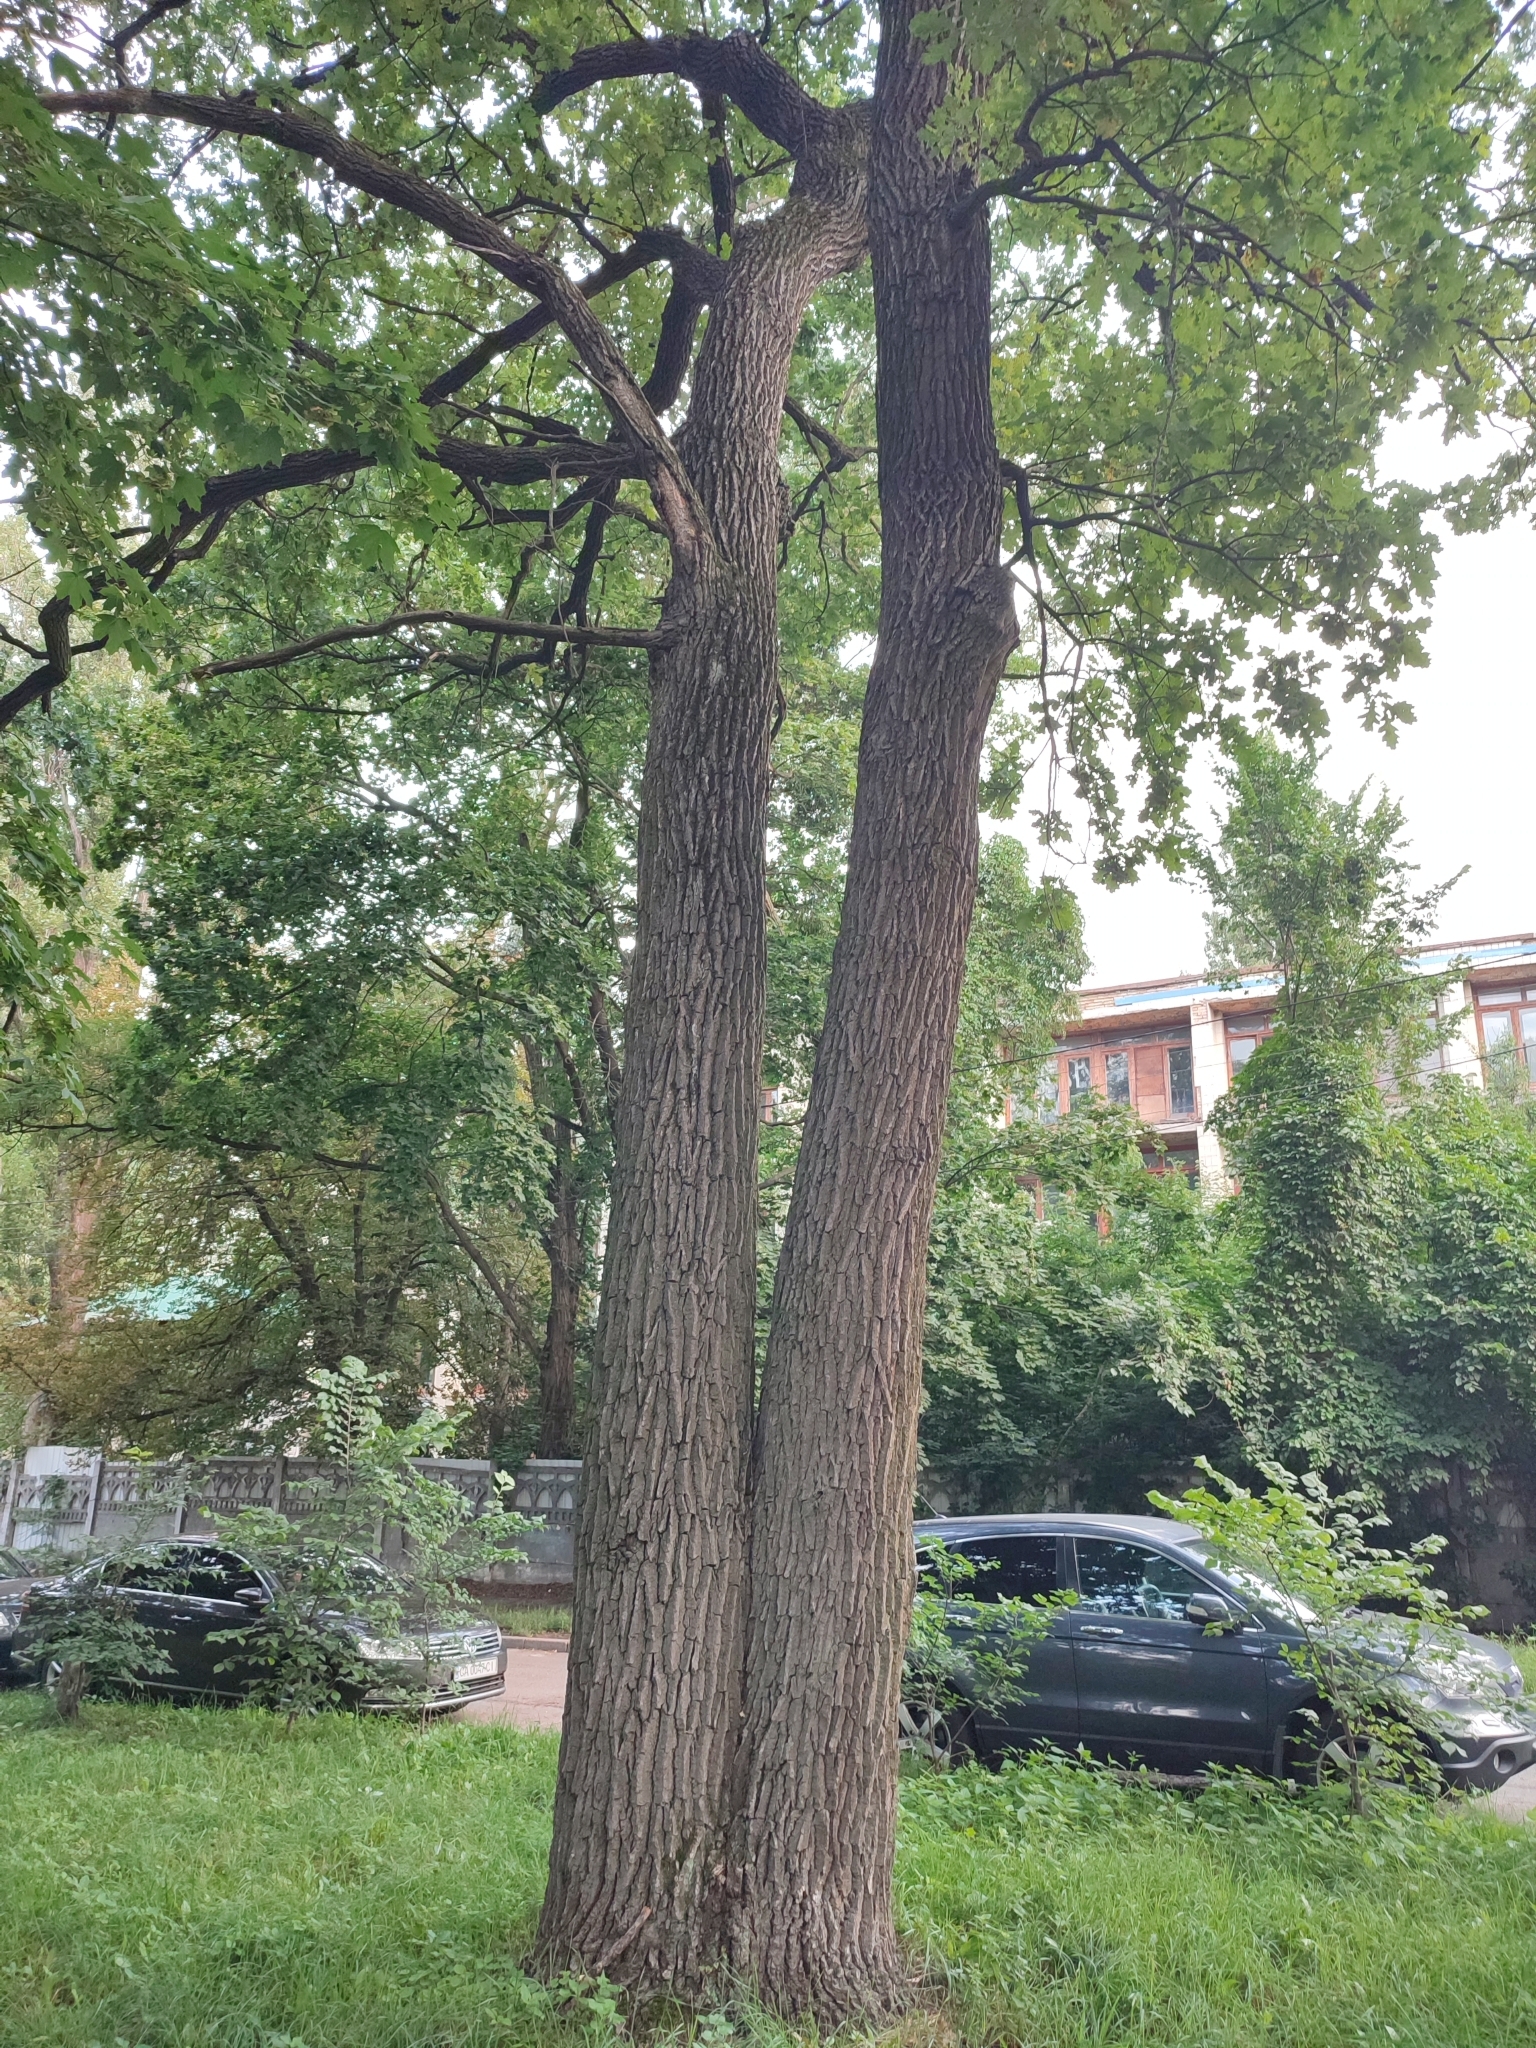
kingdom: Plantae
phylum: Tracheophyta
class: Magnoliopsida
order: Fagales
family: Fagaceae
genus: Quercus
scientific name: Quercus robur
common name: Pedunculate oak
